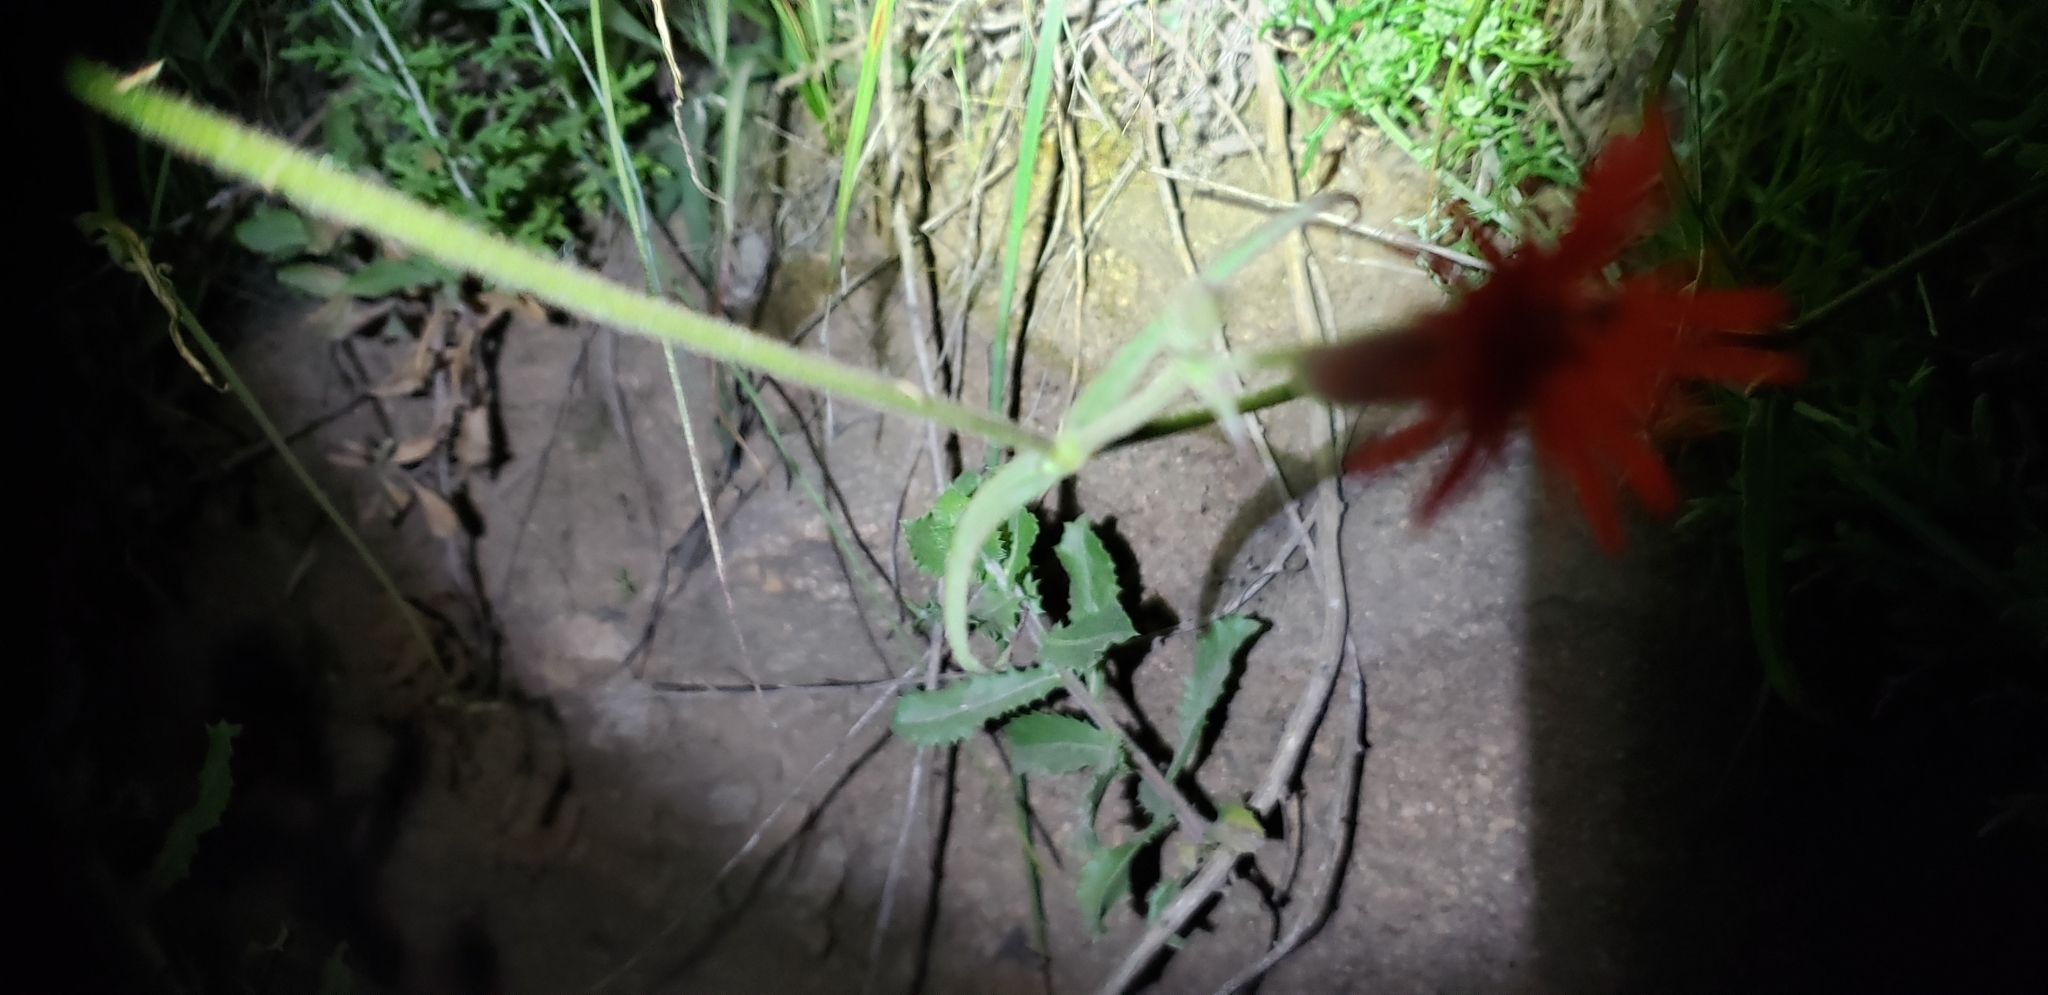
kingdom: Plantae
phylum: Tracheophyta
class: Magnoliopsida
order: Caryophyllales
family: Caryophyllaceae
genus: Silene
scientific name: Silene laciniata
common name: Indian-pink
